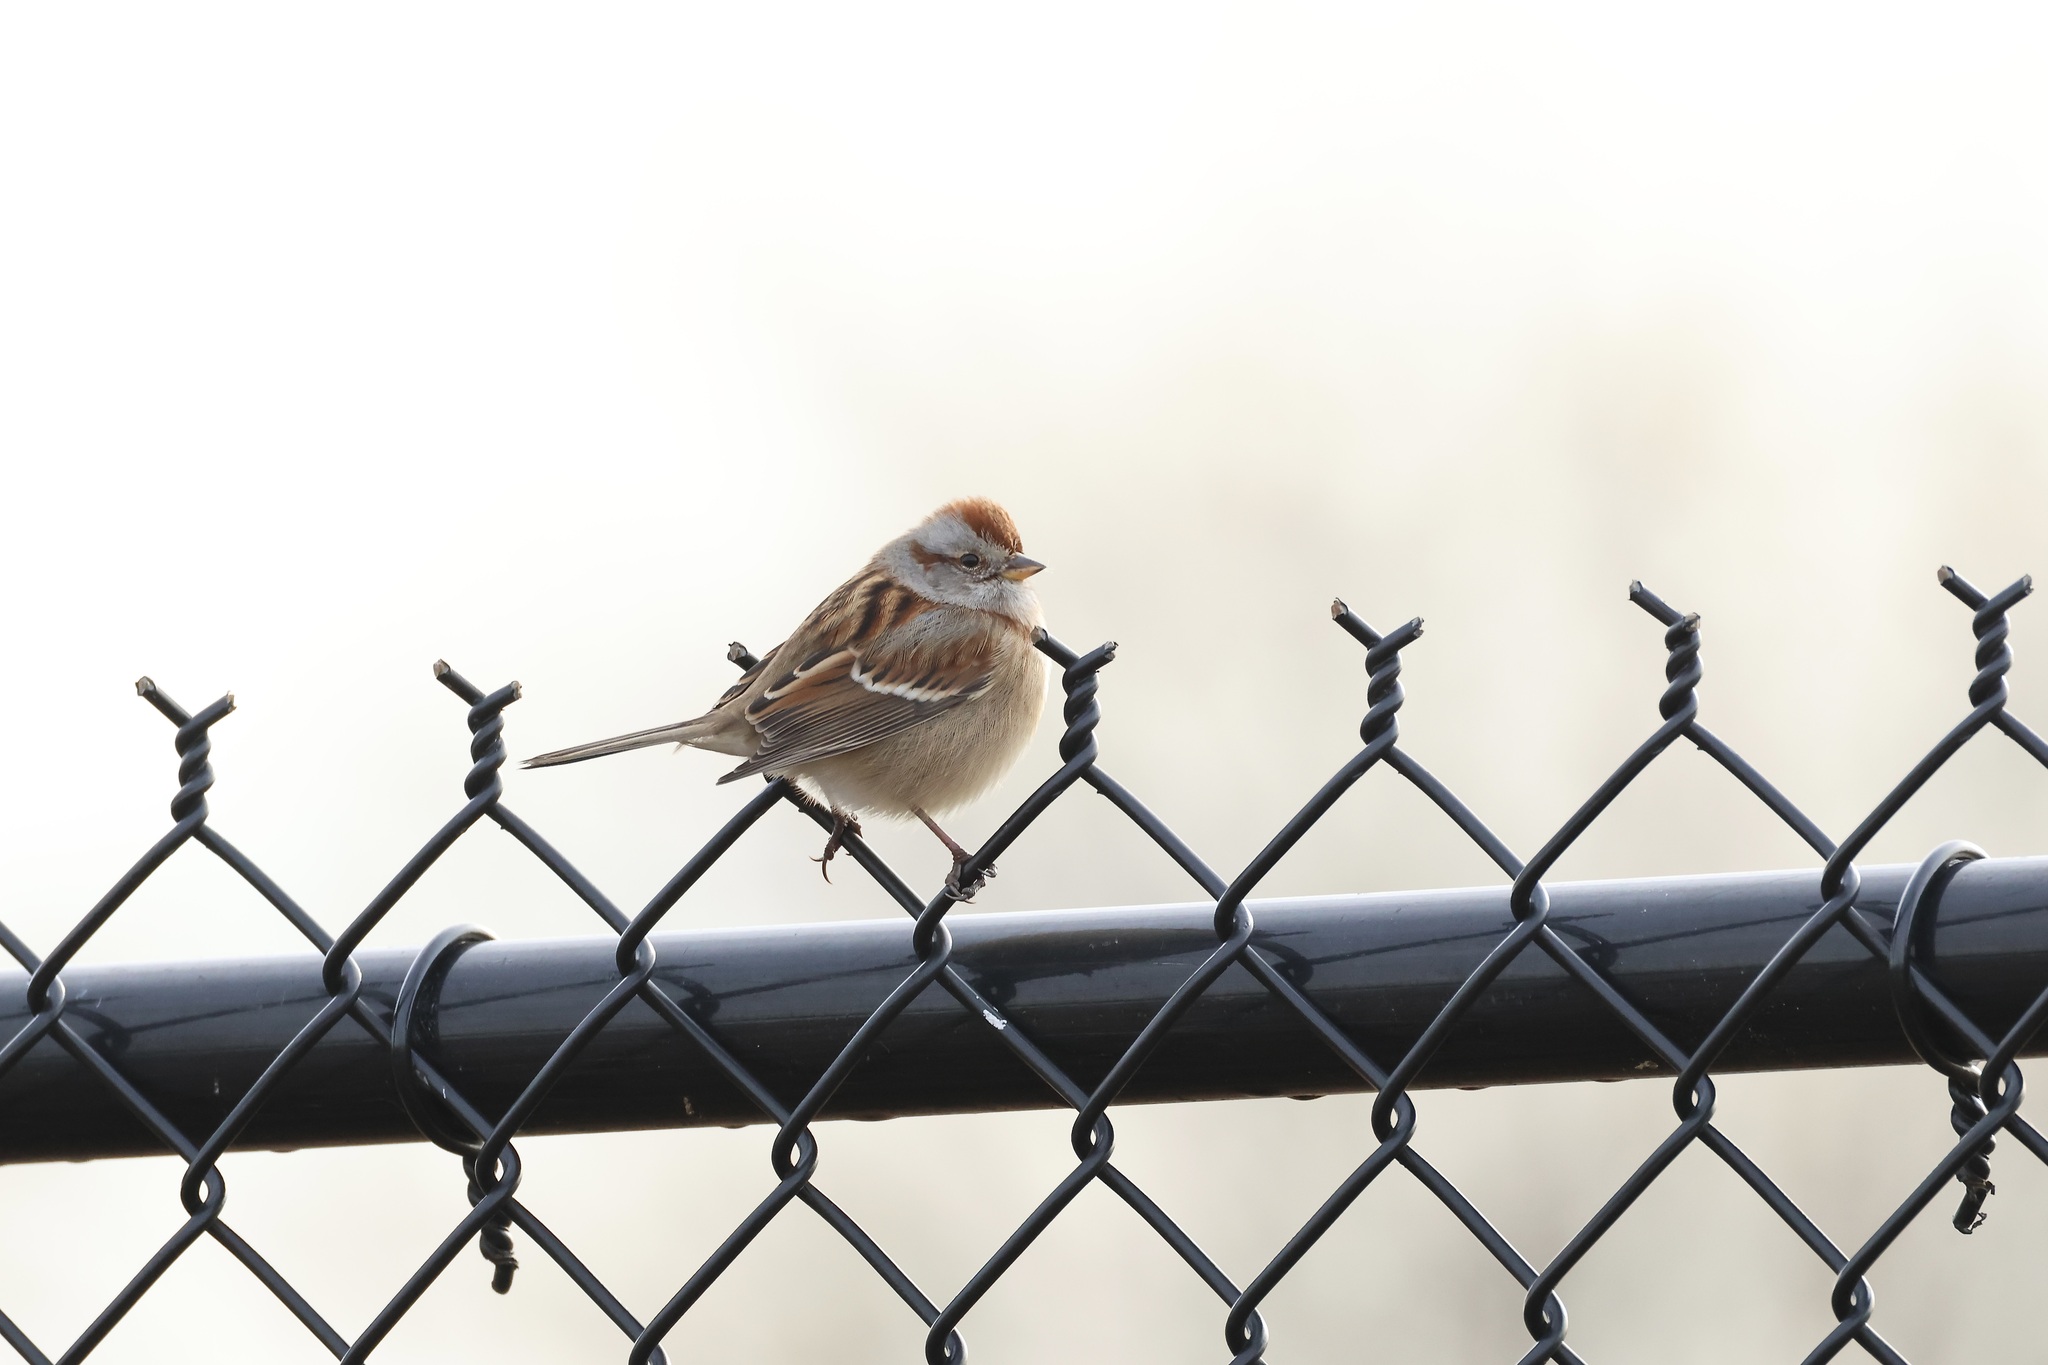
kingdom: Animalia
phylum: Chordata
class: Aves
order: Passeriformes
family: Passerellidae
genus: Spizelloides
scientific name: Spizelloides arborea
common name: American tree sparrow
